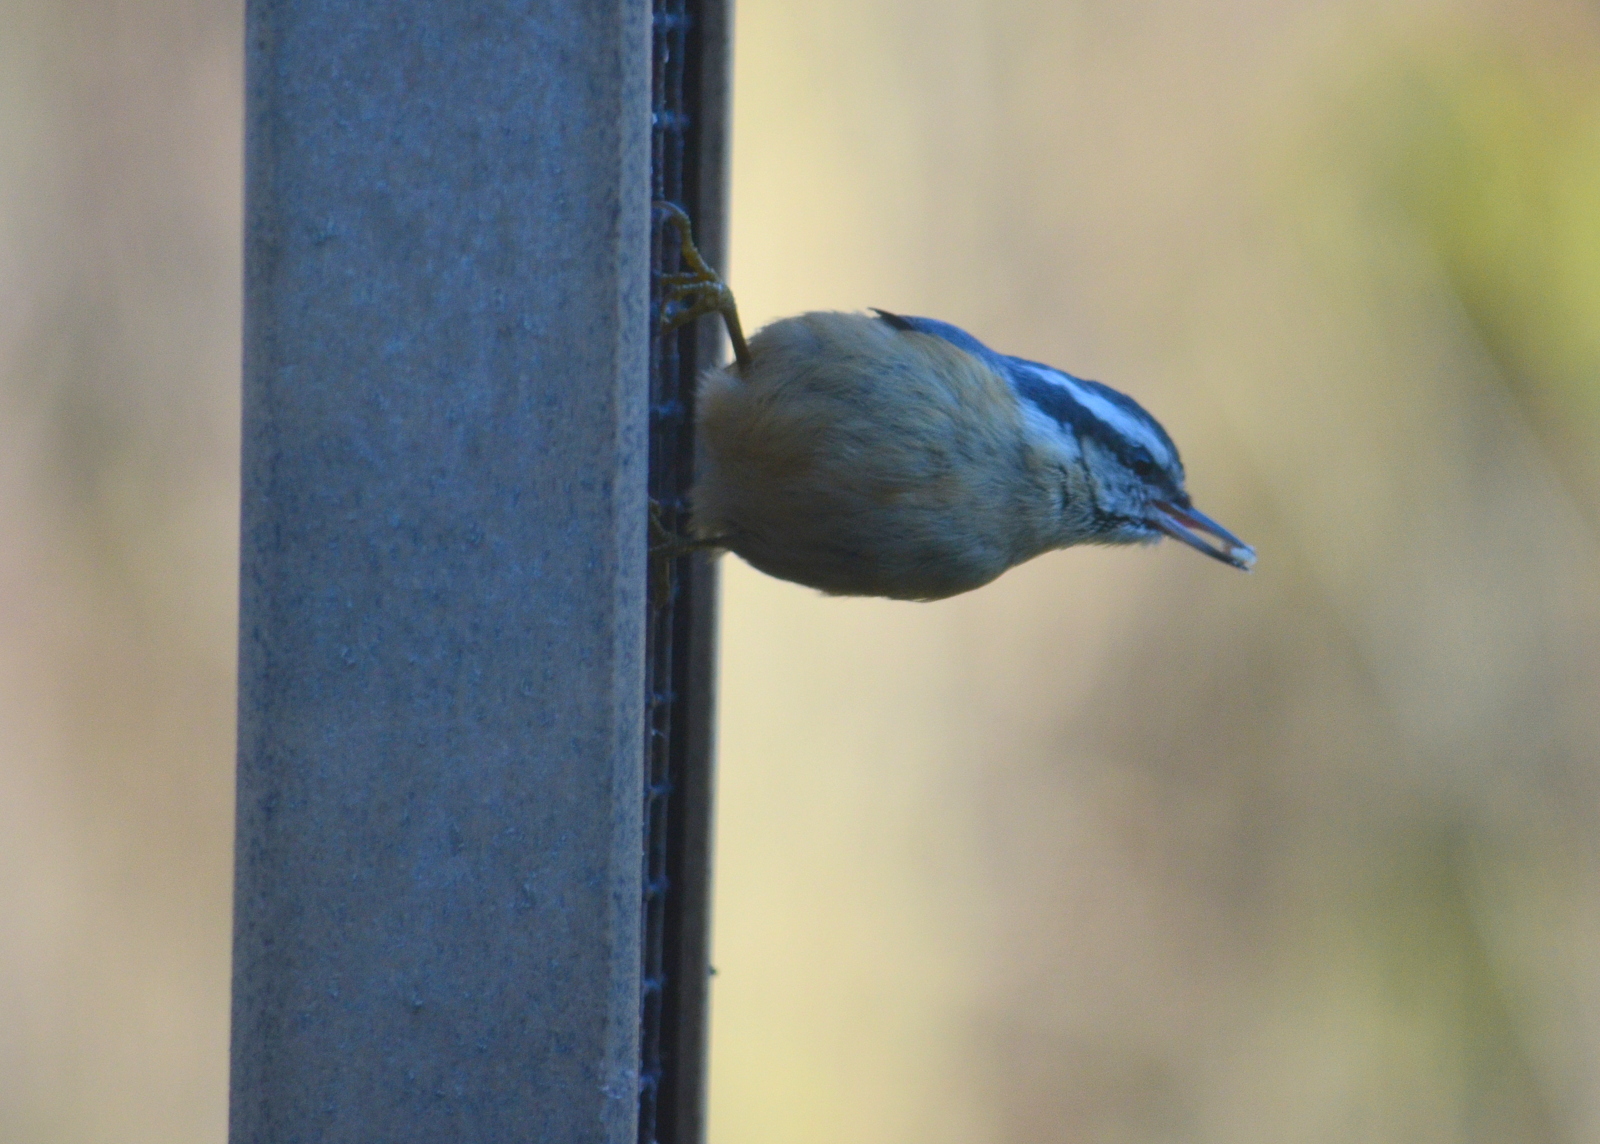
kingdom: Animalia
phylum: Chordata
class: Aves
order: Passeriformes
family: Sittidae
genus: Sitta
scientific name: Sitta canadensis
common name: Red-breasted nuthatch
